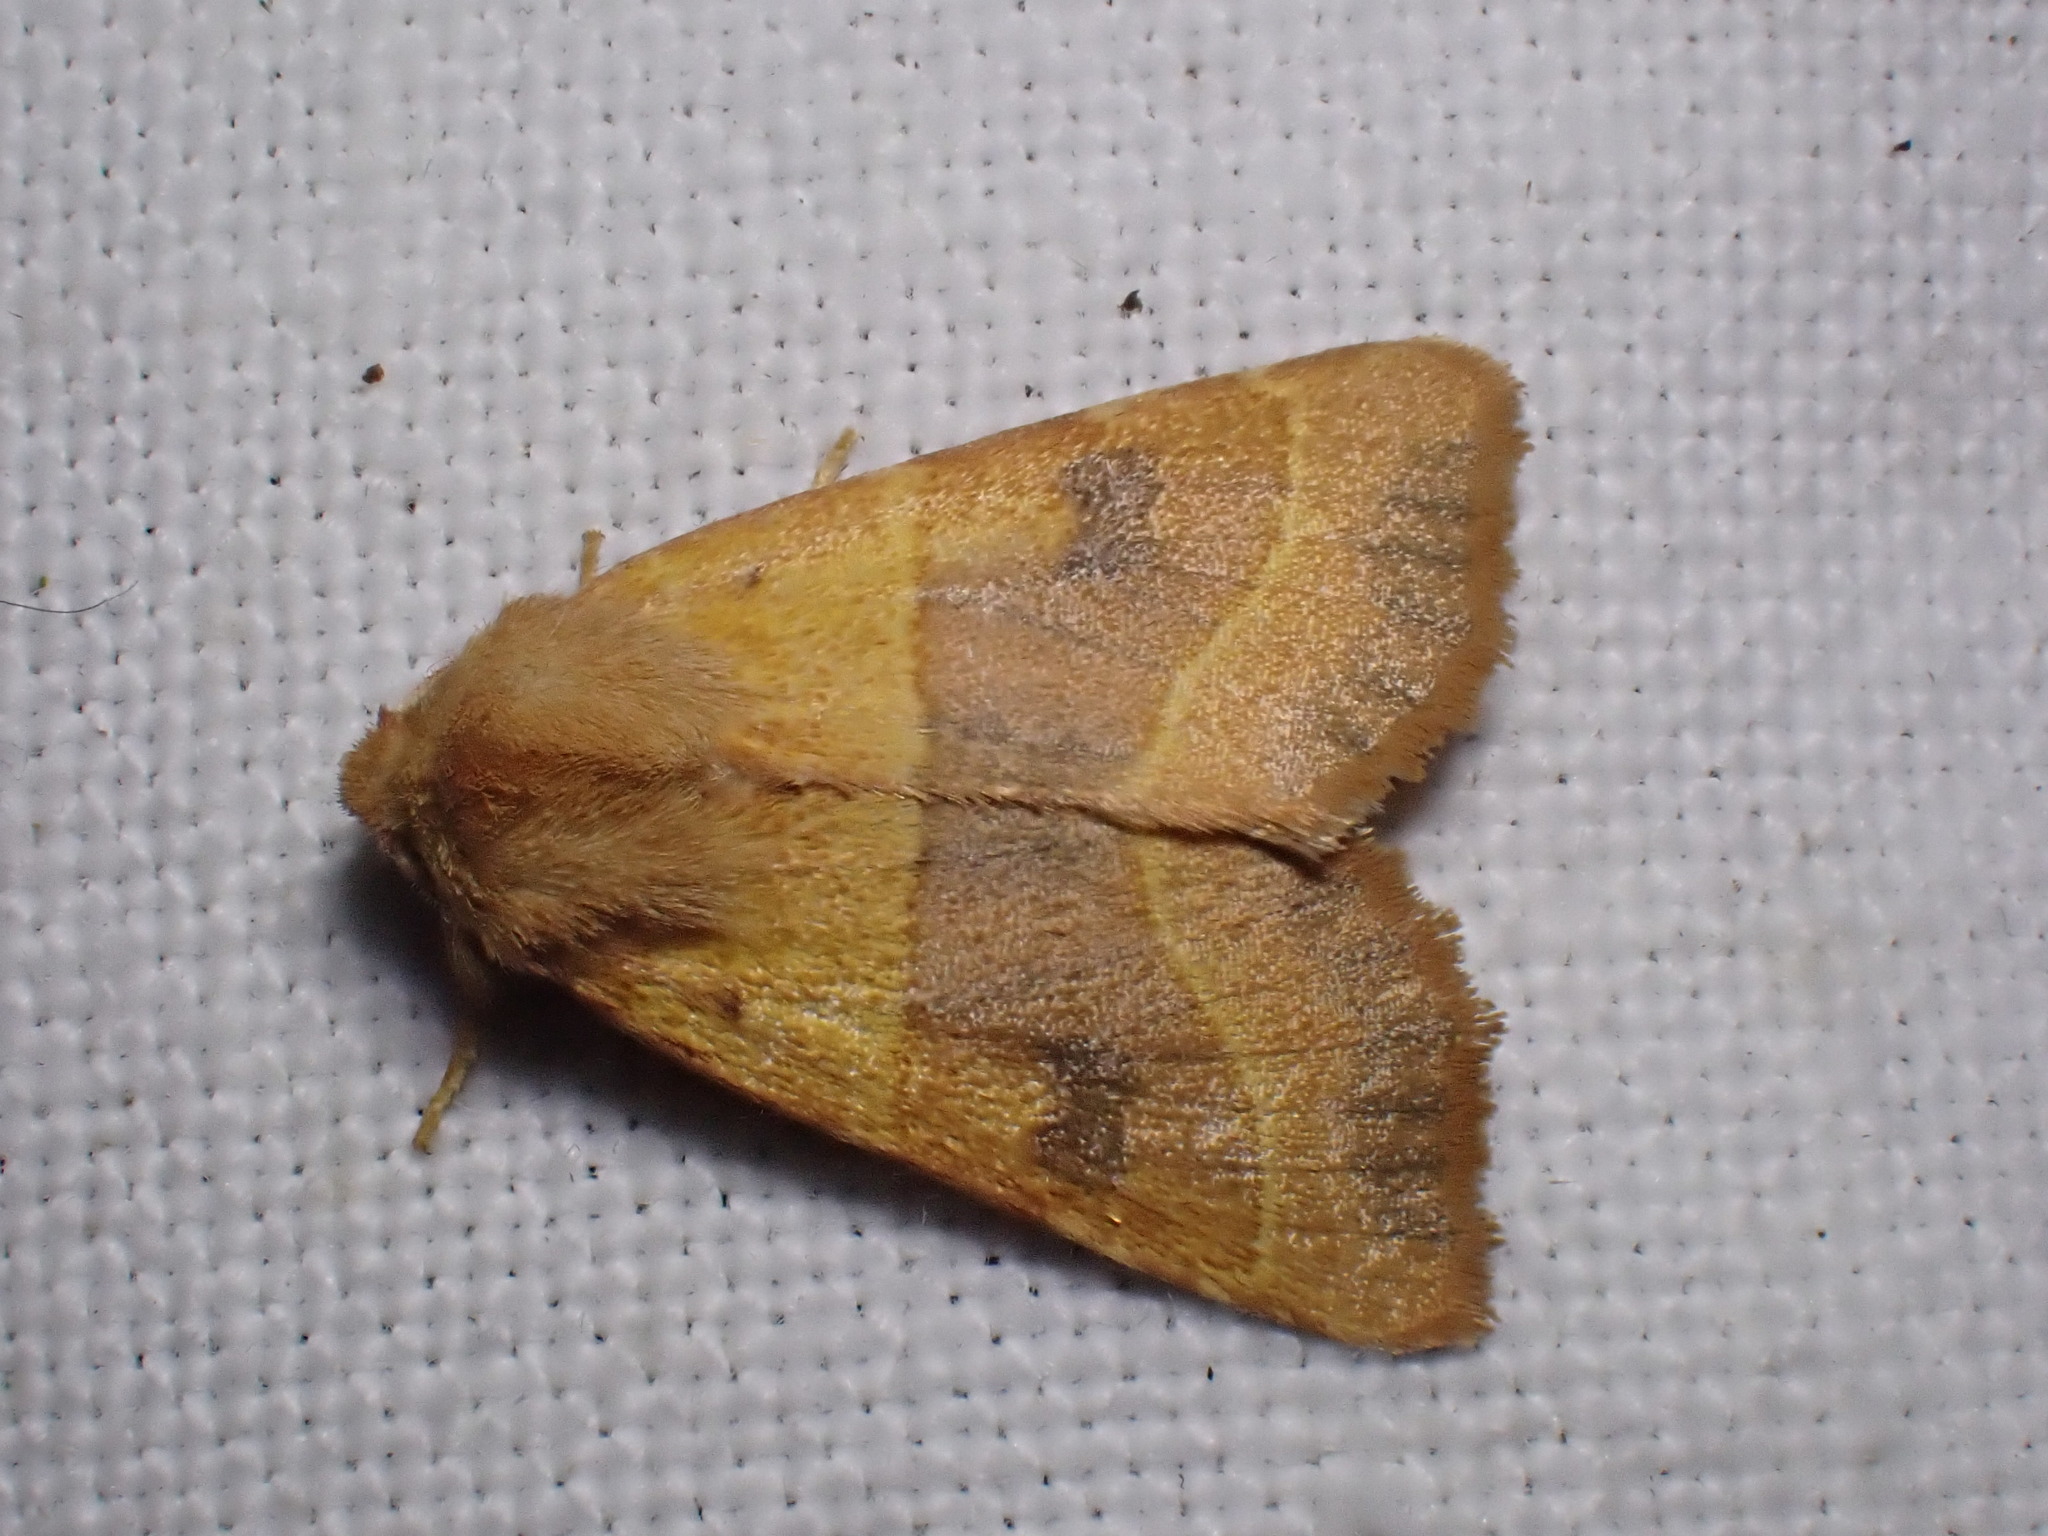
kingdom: Animalia
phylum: Arthropoda
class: Insecta
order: Lepidoptera
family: Noctuidae
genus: Atethmia
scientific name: Atethmia centrago
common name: Centre-barred sallow
